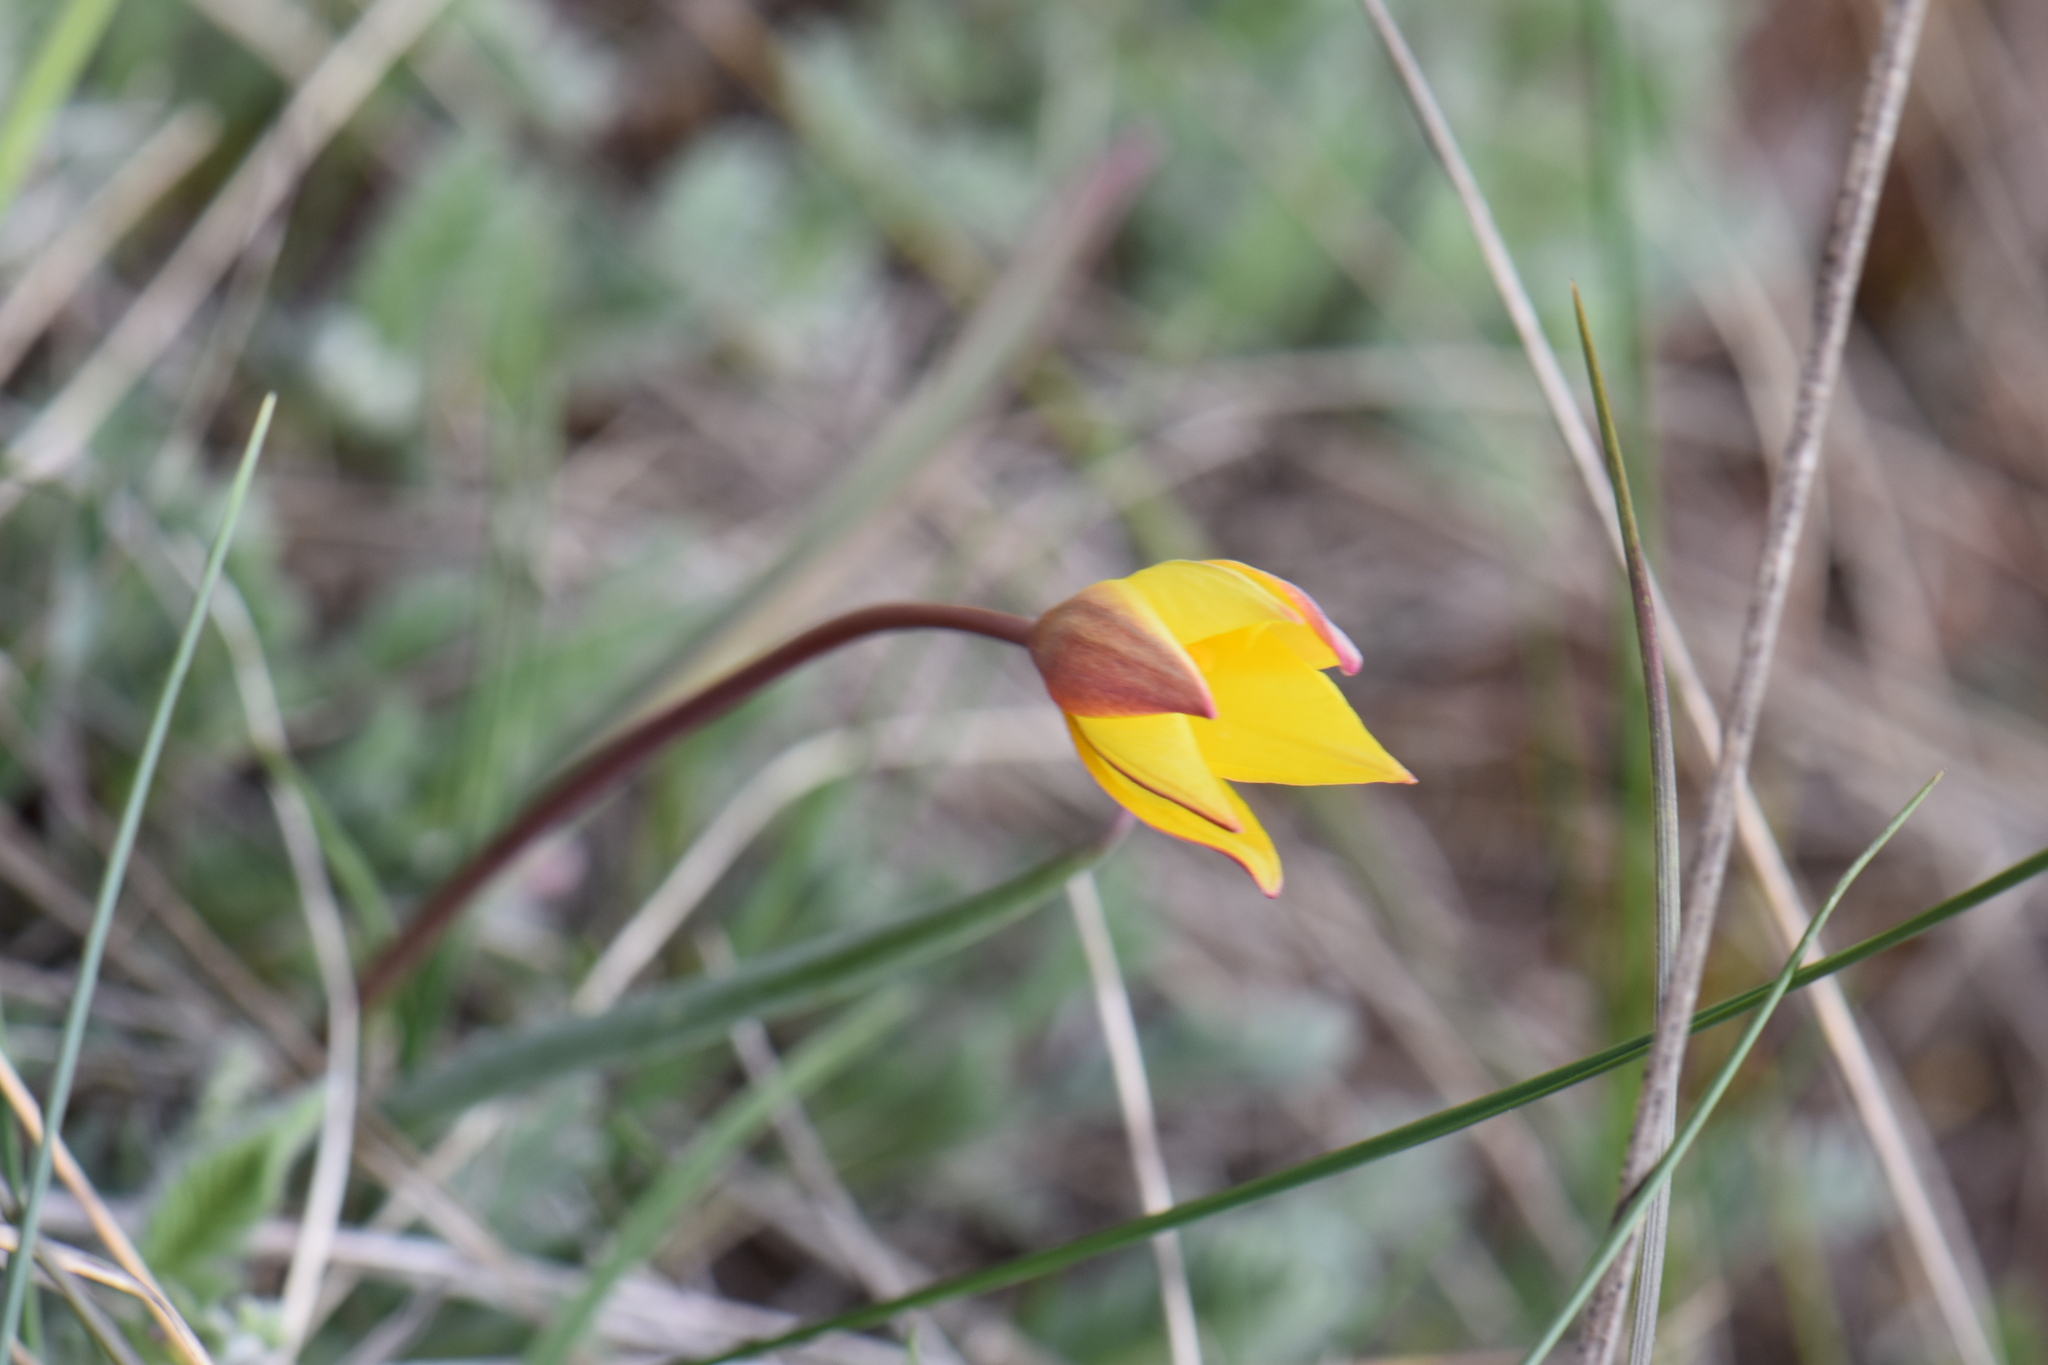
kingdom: Plantae
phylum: Tracheophyta
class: Liliopsida
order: Liliales
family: Liliaceae
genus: Tulipa
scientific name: Tulipa sylvestris
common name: Wild tulip
